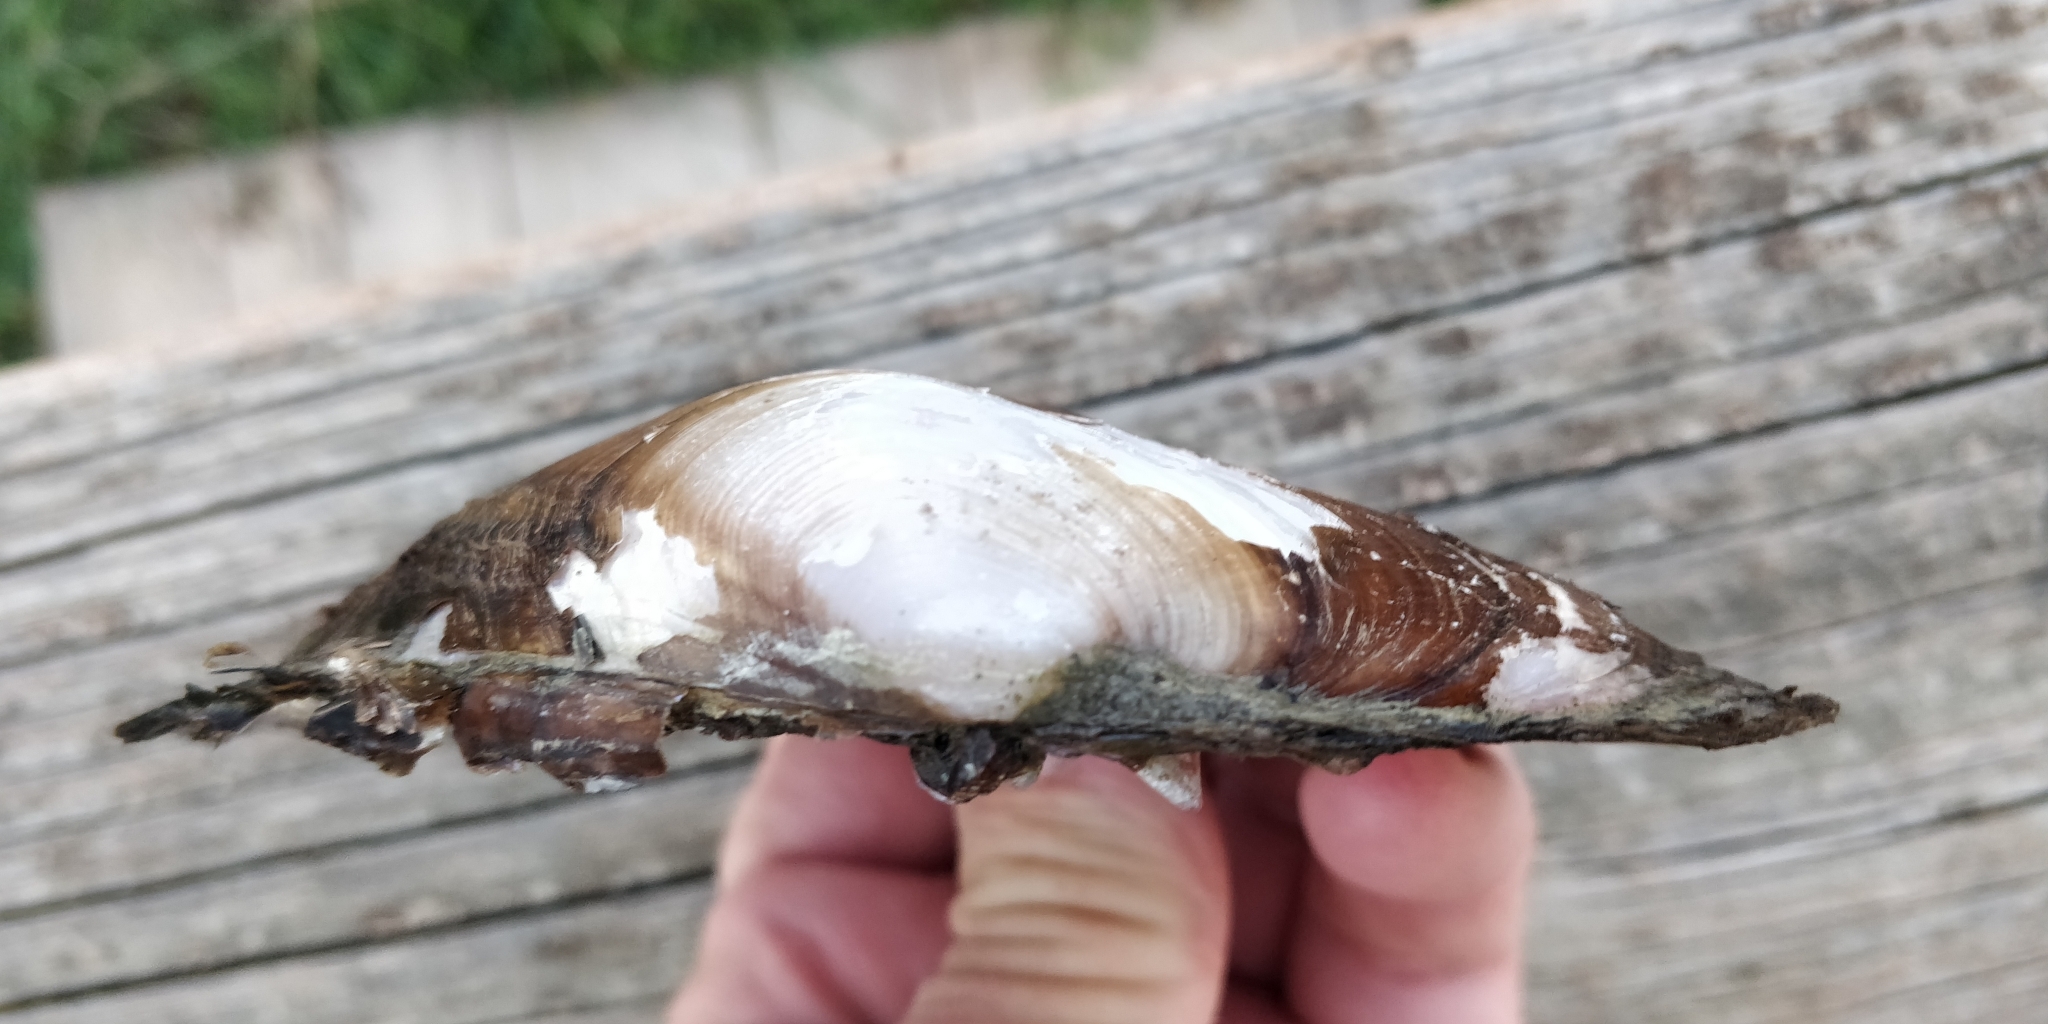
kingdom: Animalia
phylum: Mollusca
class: Bivalvia
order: Unionida
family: Unionidae
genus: Potamilus
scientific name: Potamilus alatus
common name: Pink heelsplitter
